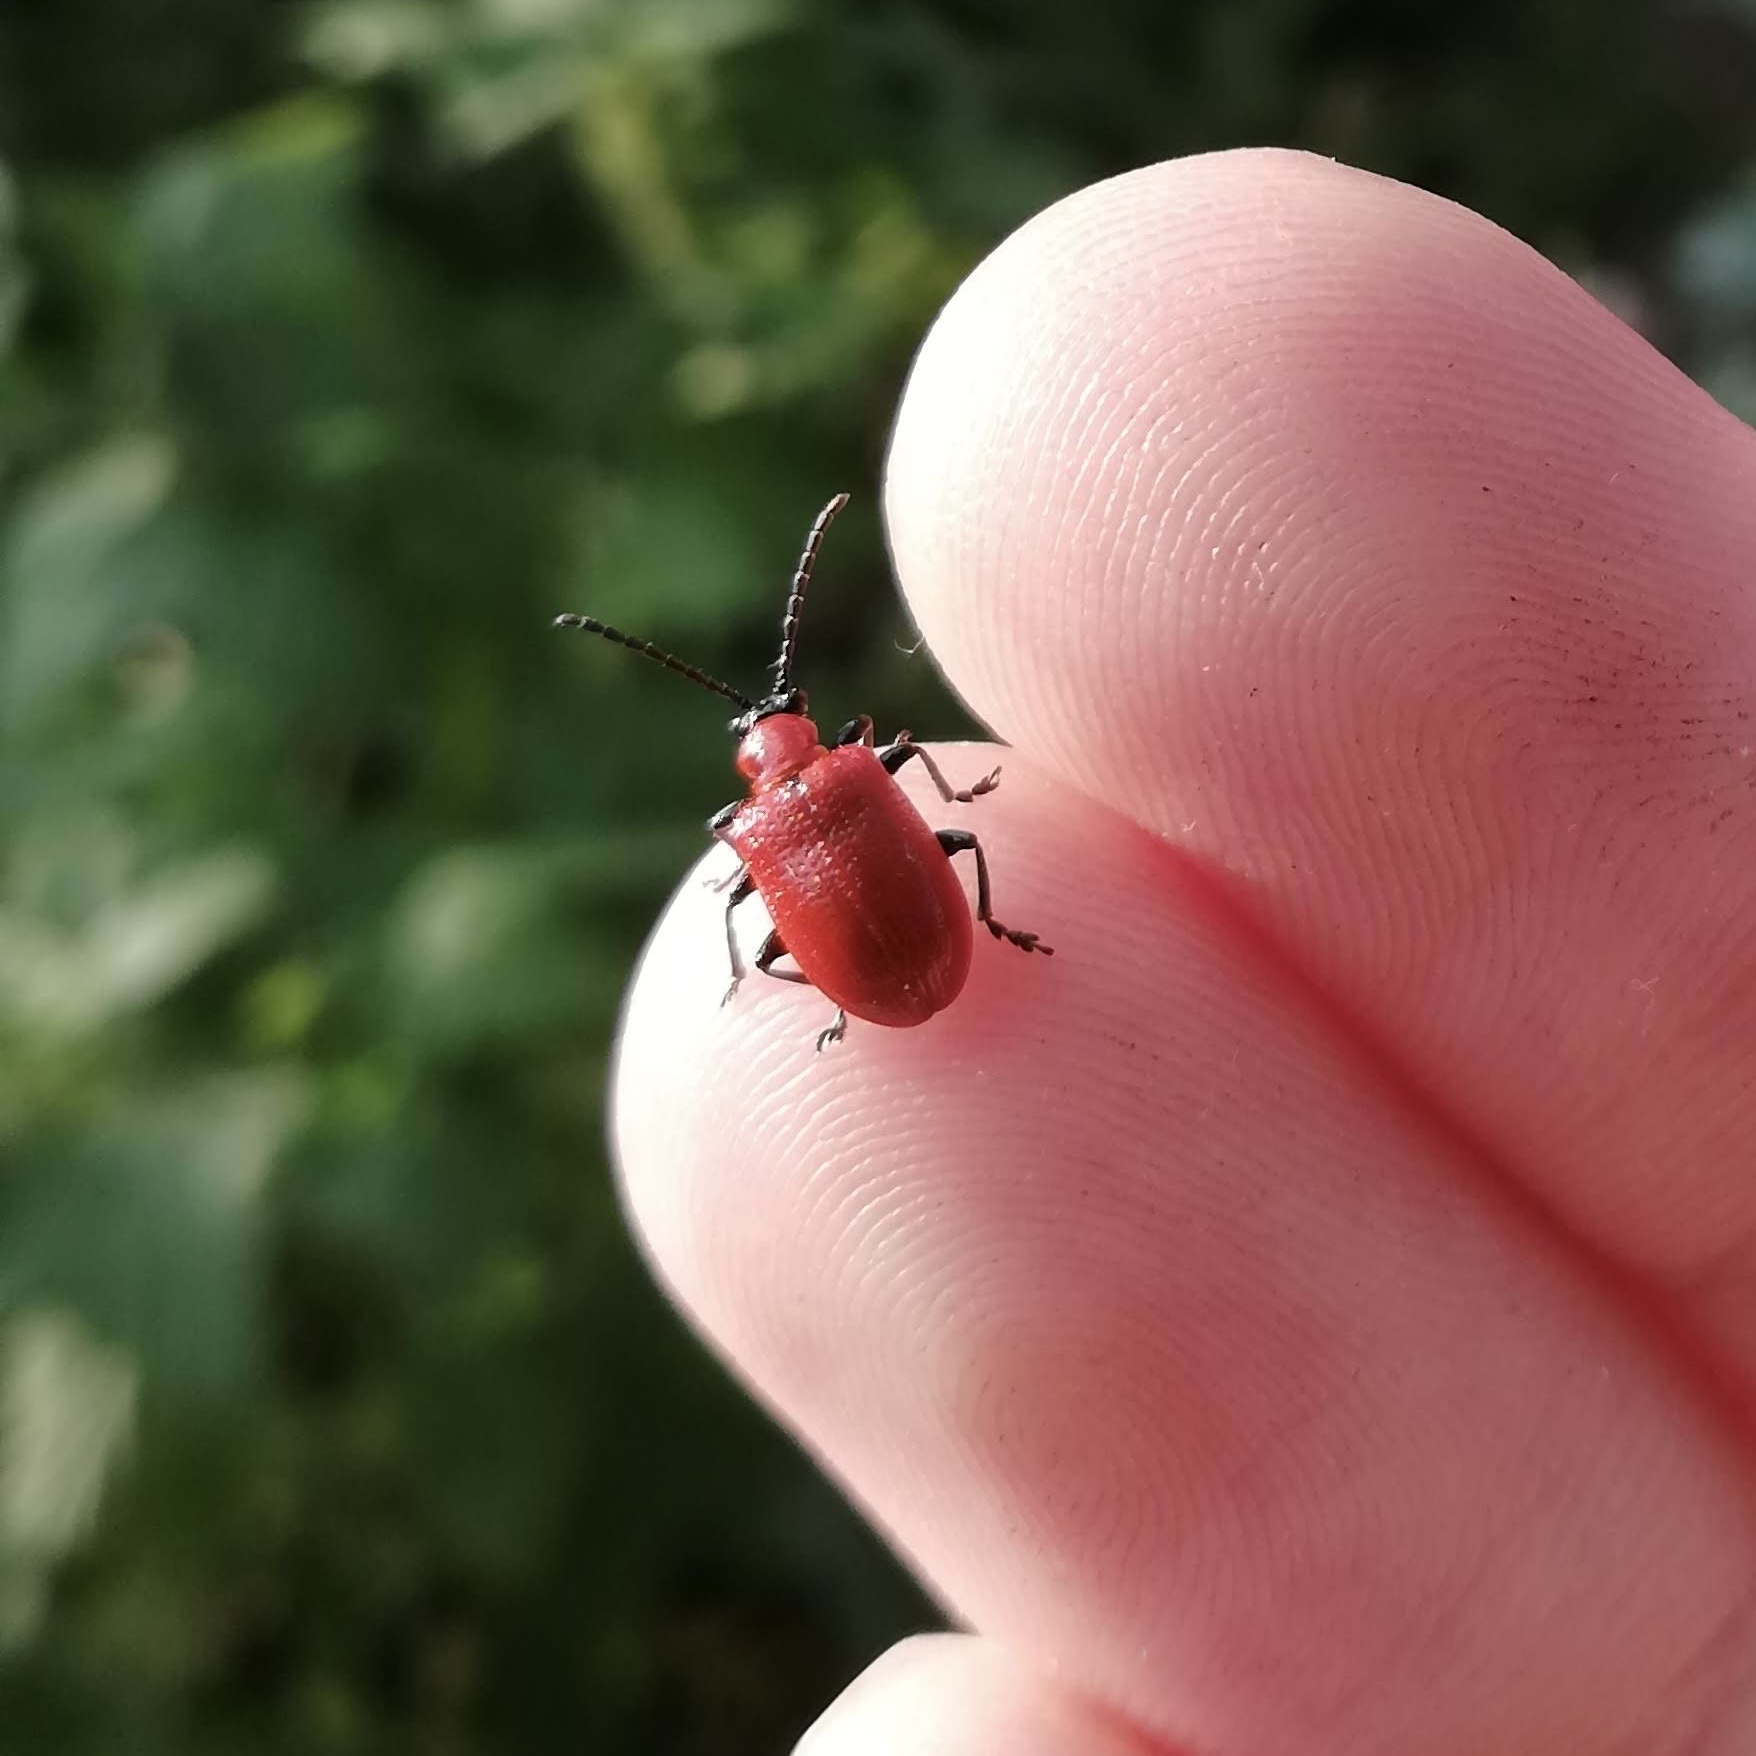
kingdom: Animalia
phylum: Arthropoda
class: Insecta
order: Coleoptera
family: Chrysomelidae
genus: Lilioceris
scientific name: Lilioceris lilii
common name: Lily beetle
